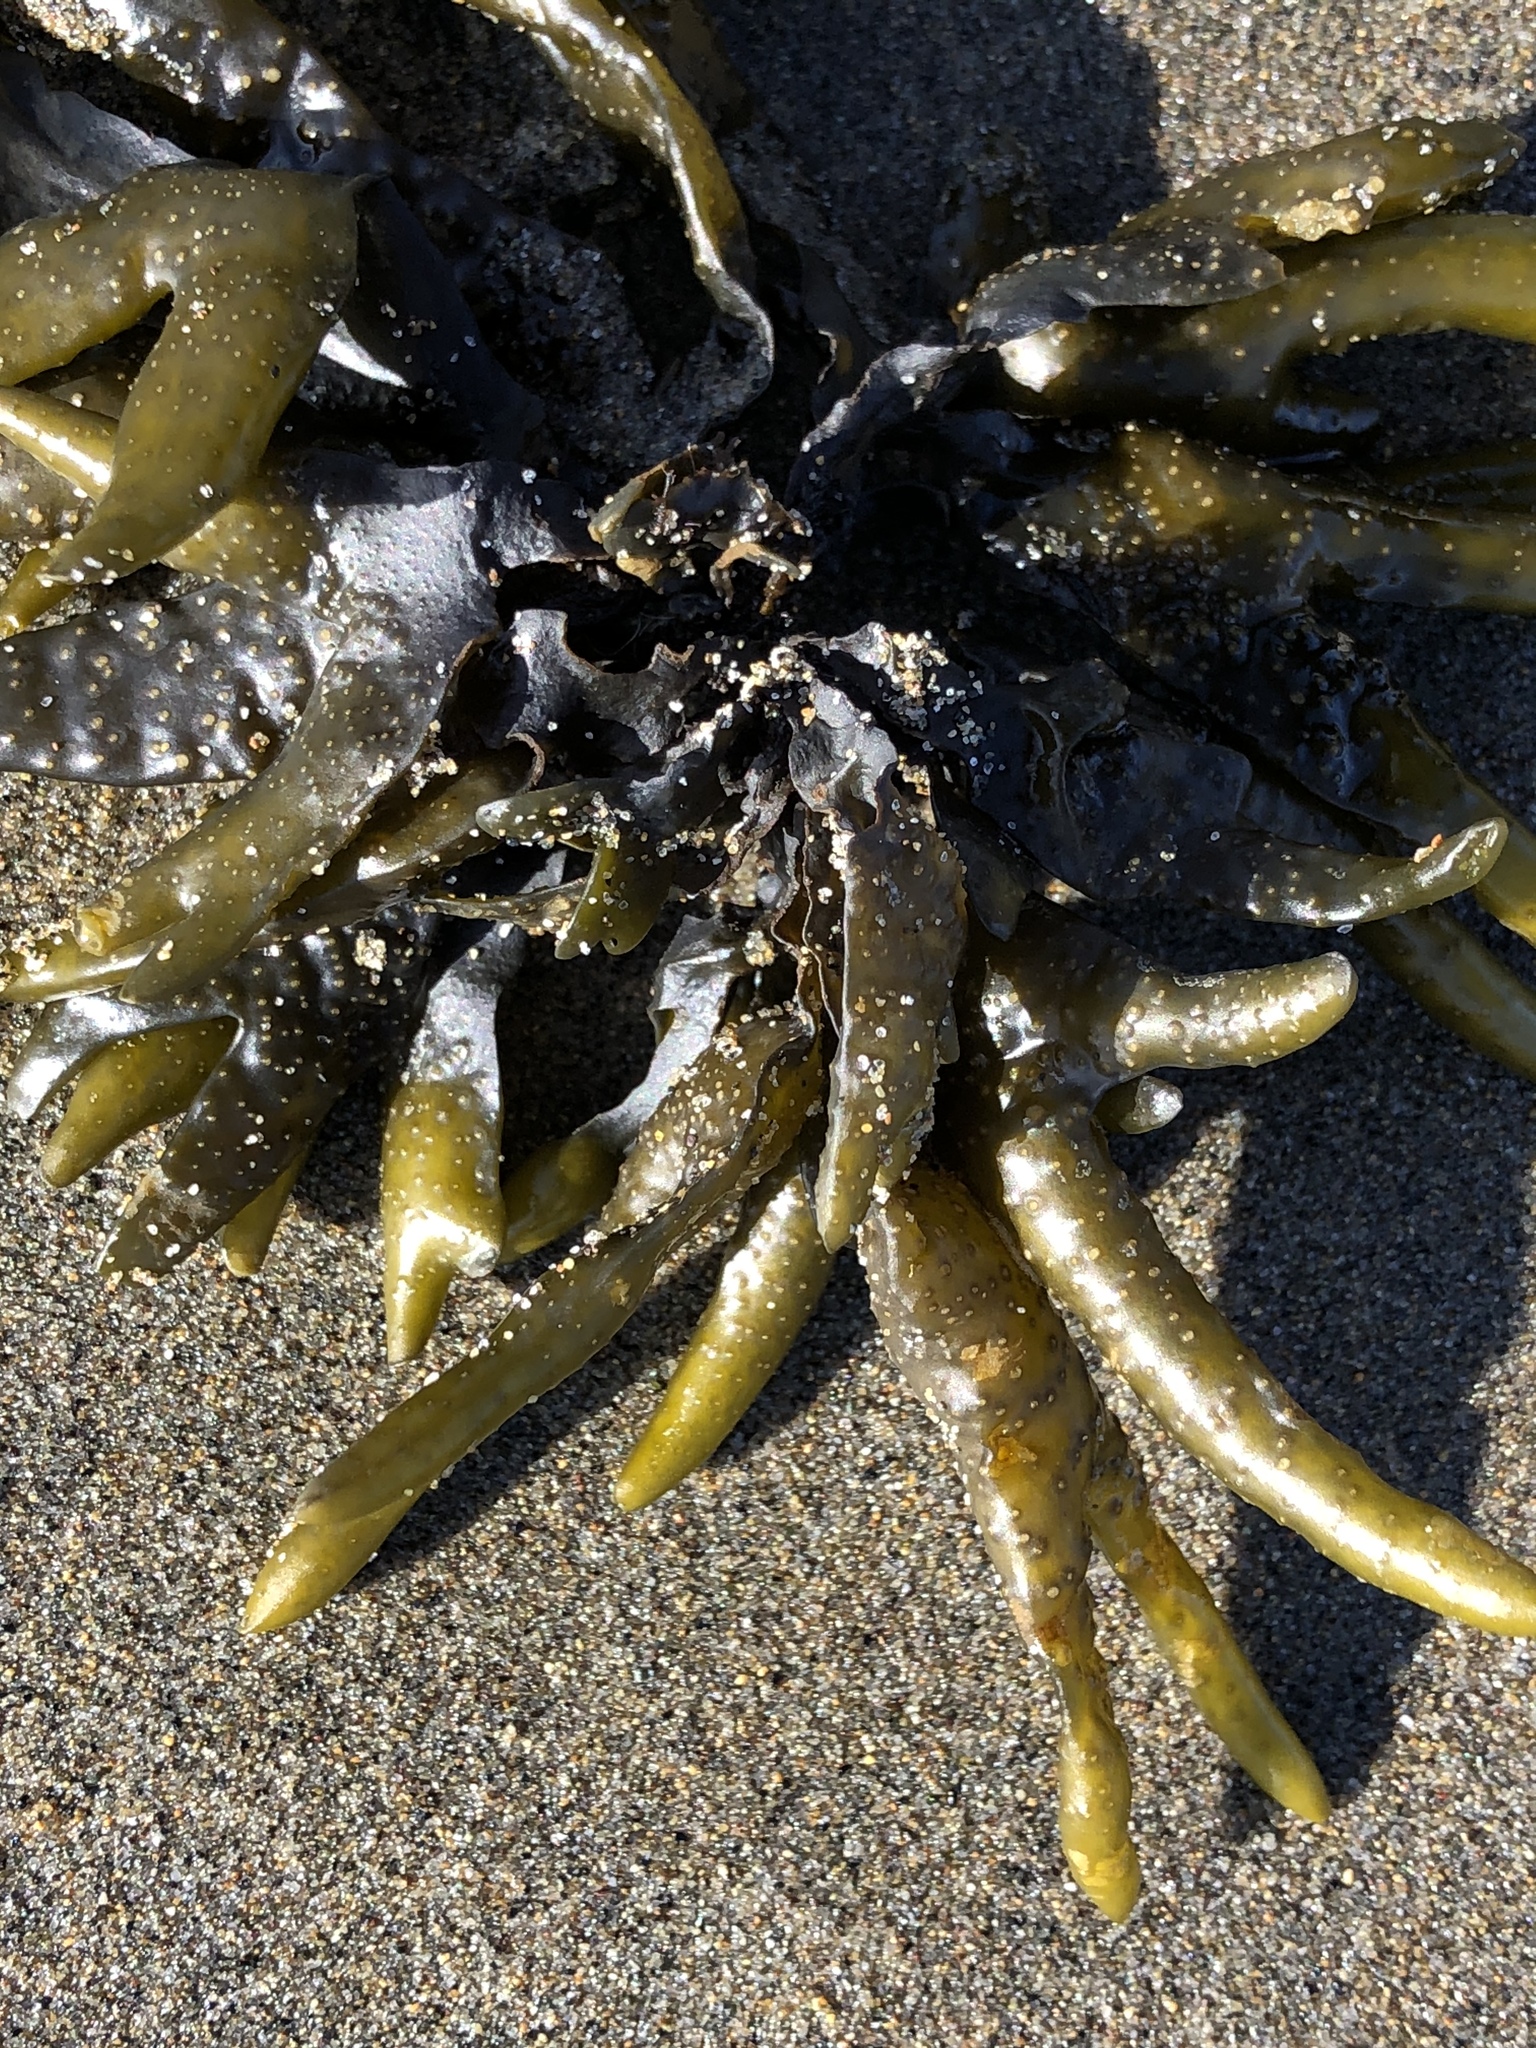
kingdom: Chromista
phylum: Ochrophyta
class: Phaeophyceae
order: Fucales
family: Fucaceae
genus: Fucus
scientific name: Fucus distichus
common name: Rockweed
